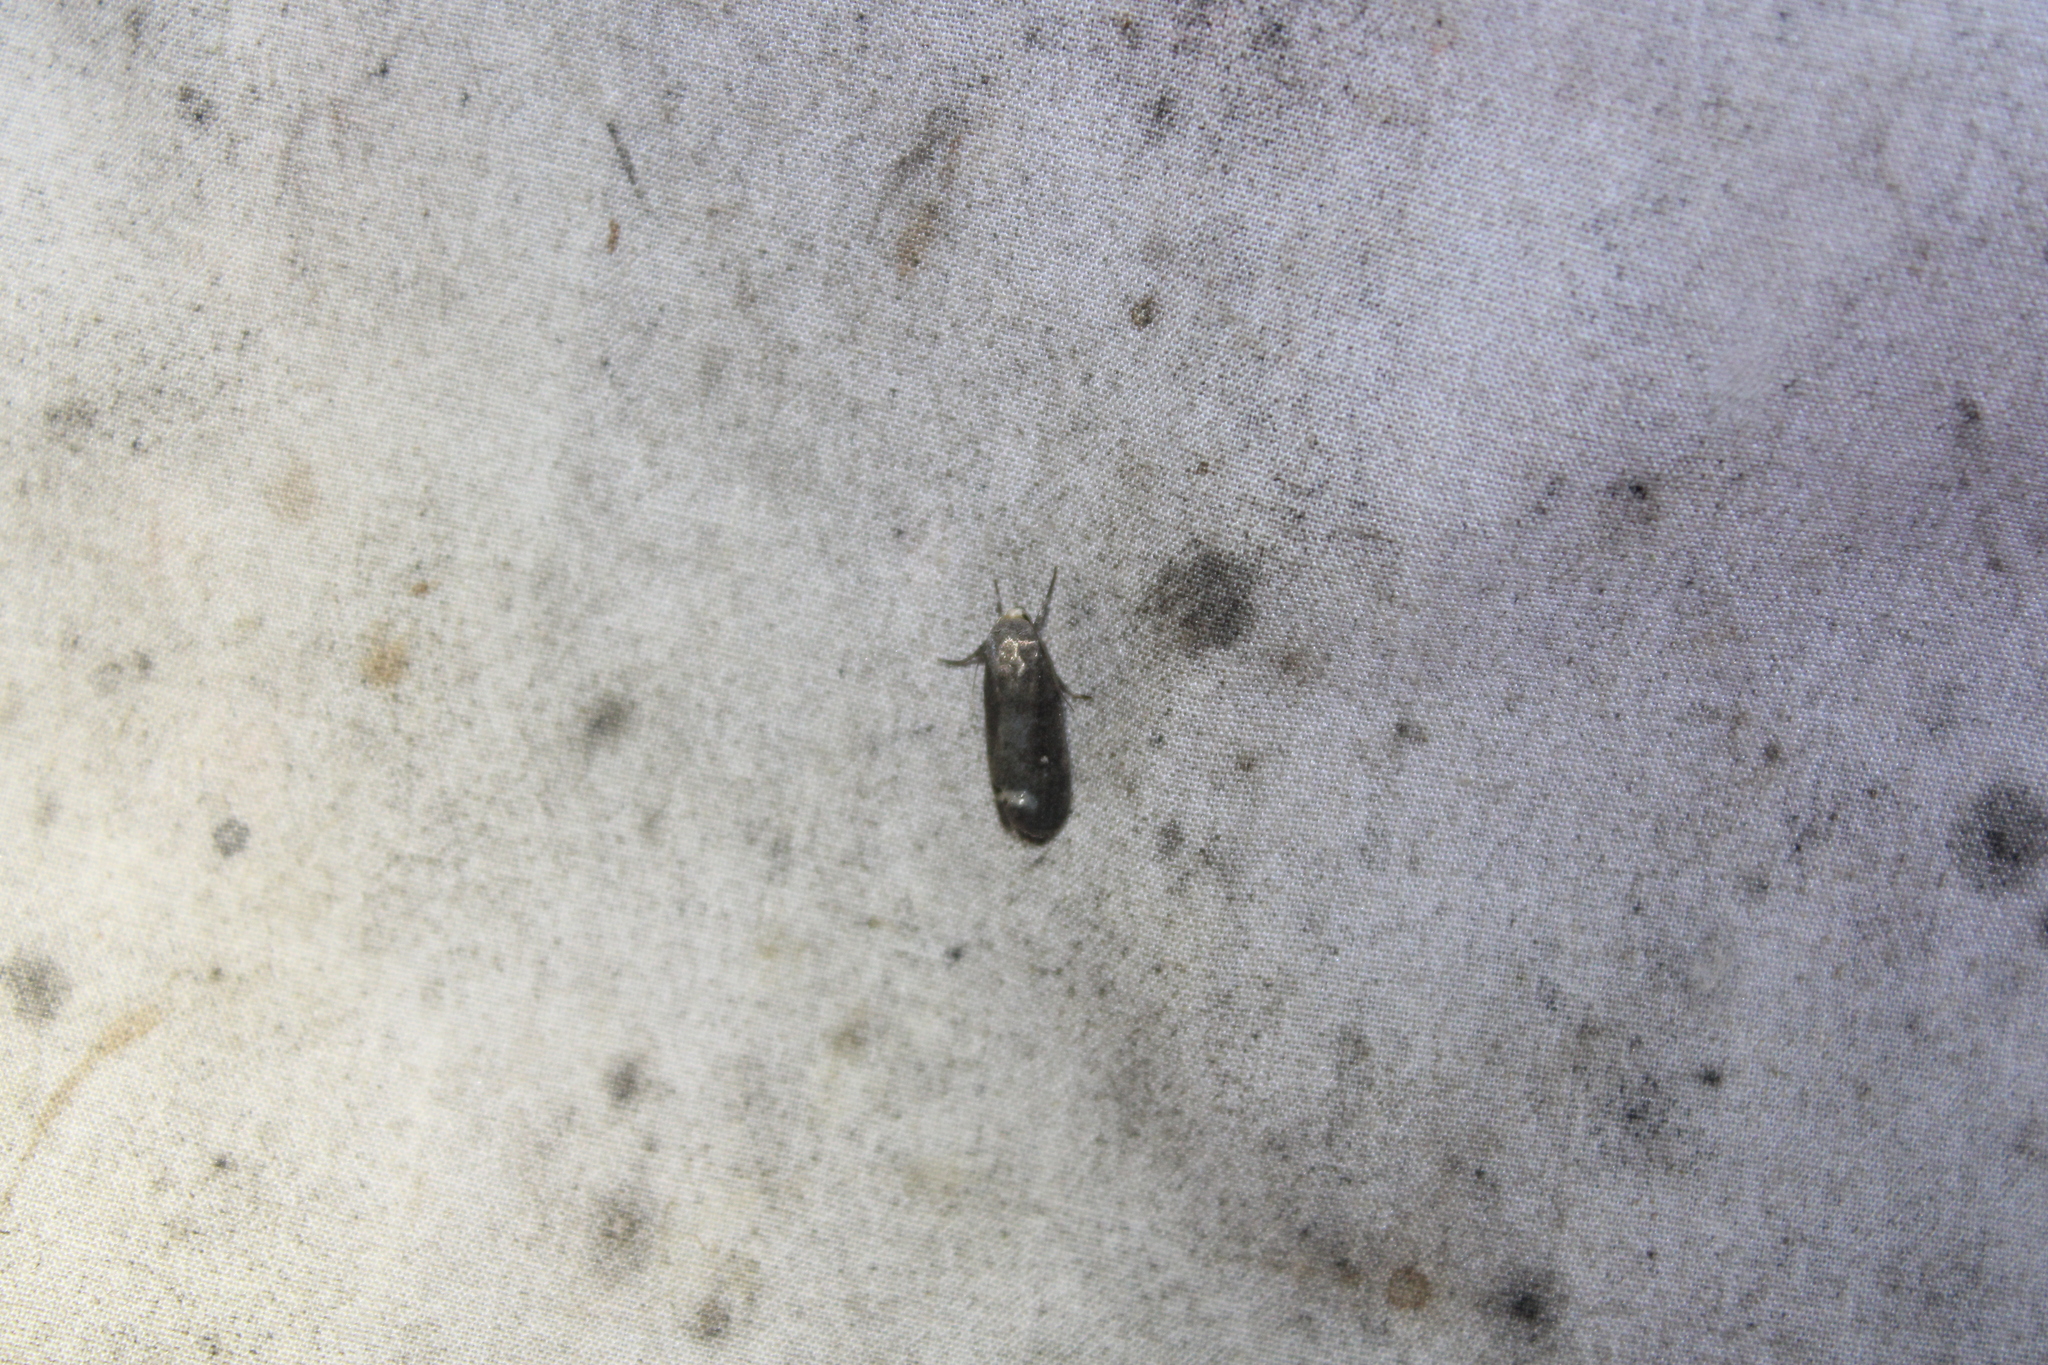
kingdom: Animalia
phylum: Arthropoda
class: Insecta
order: Lepidoptera
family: Noctuidae
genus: Proxenus
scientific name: Proxenus miranda
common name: Miranda moth
